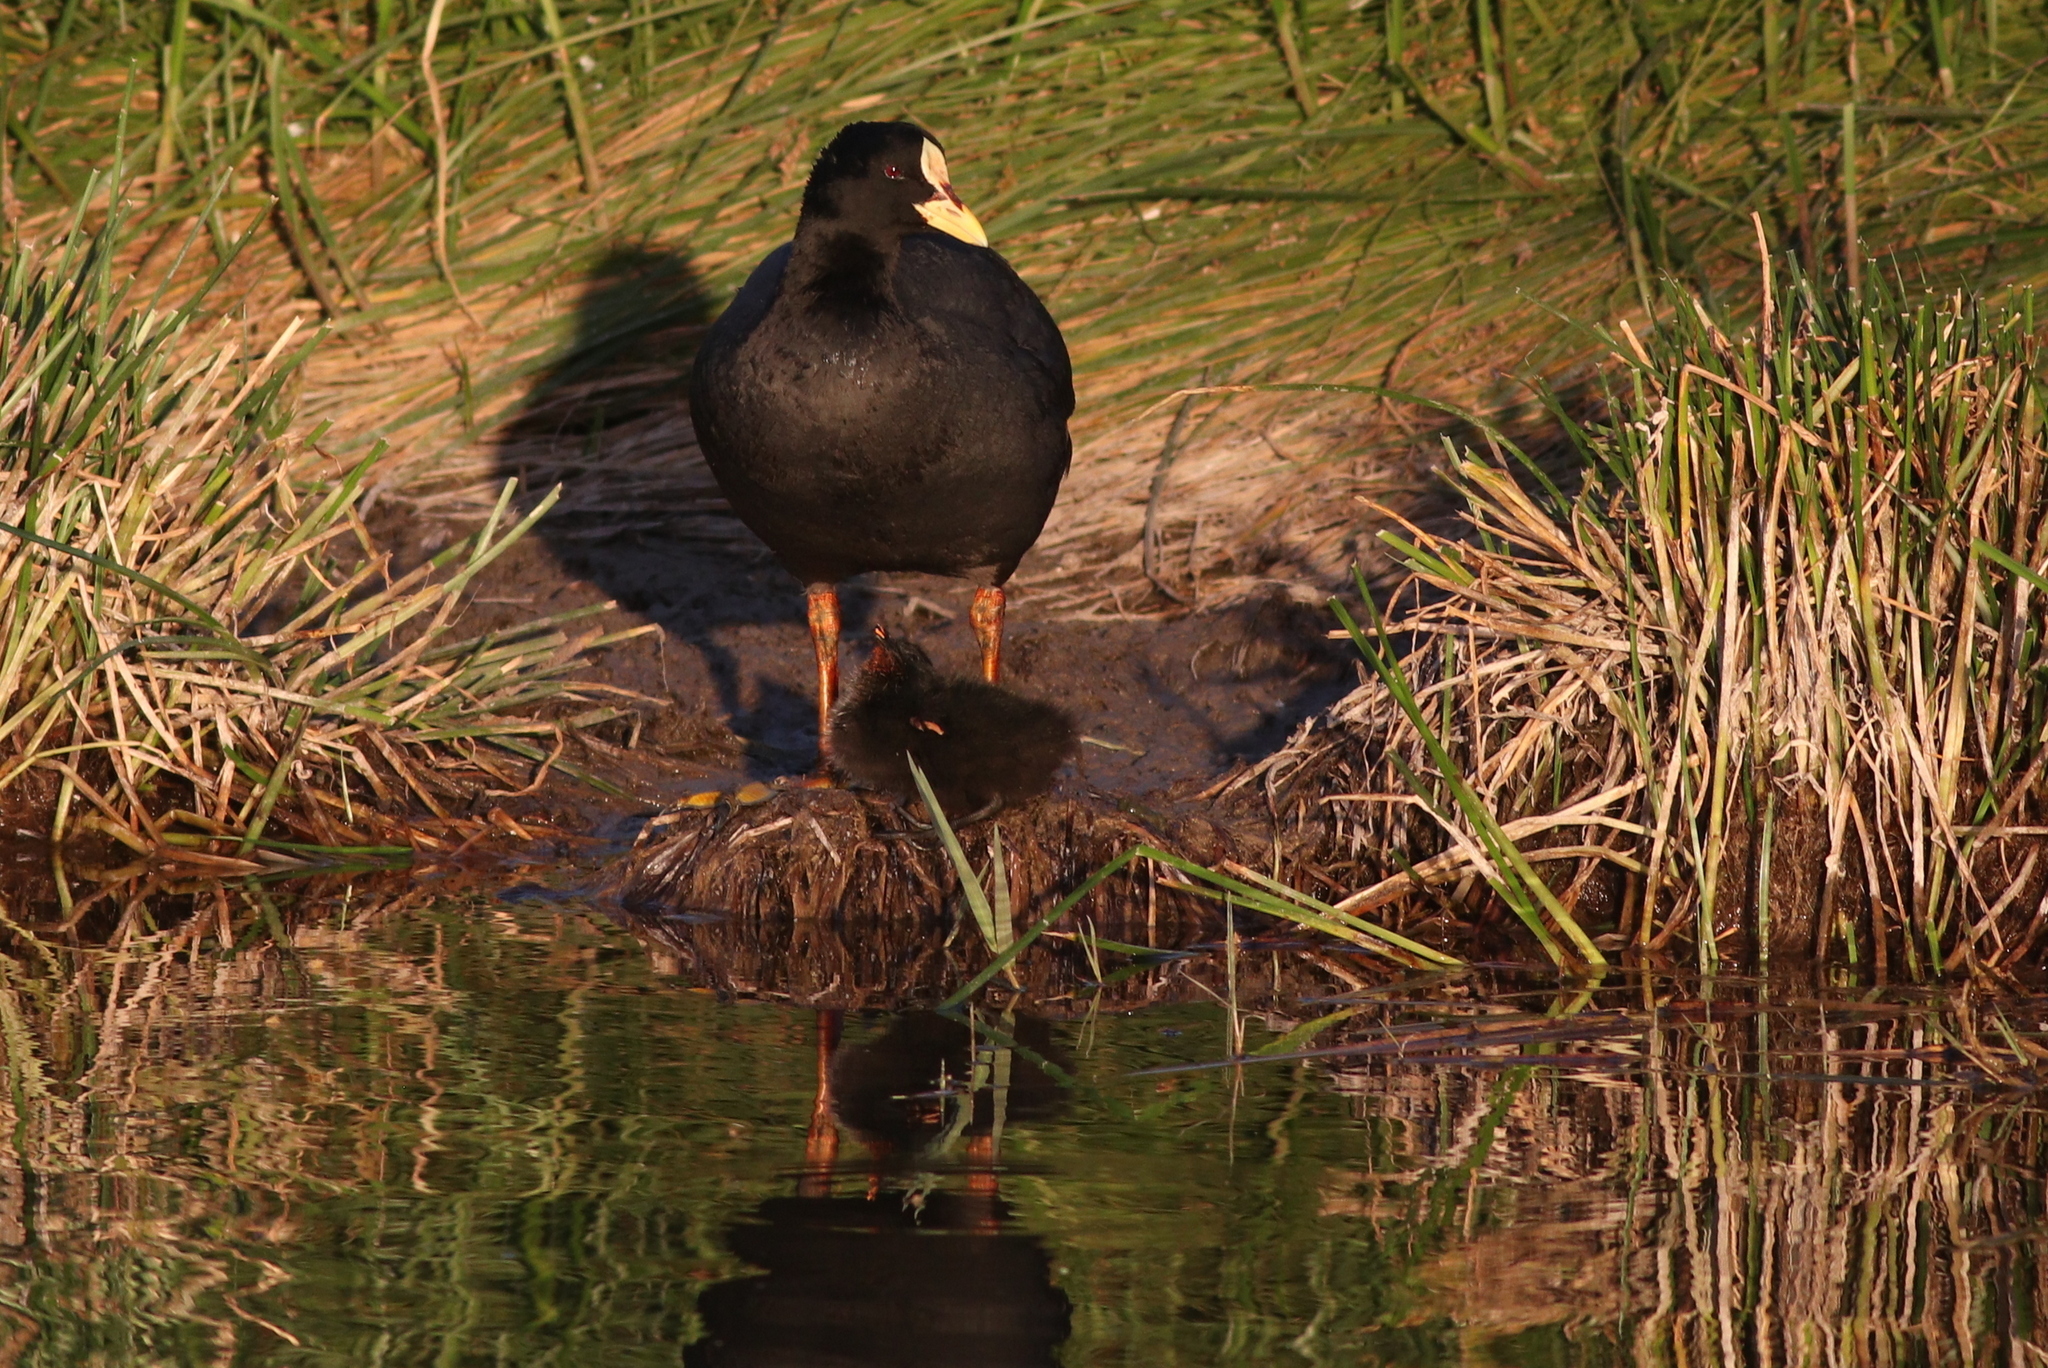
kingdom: Animalia
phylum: Chordata
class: Aves
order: Gruiformes
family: Rallidae
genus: Fulica
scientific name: Fulica armillata
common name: Red-gartered coot
